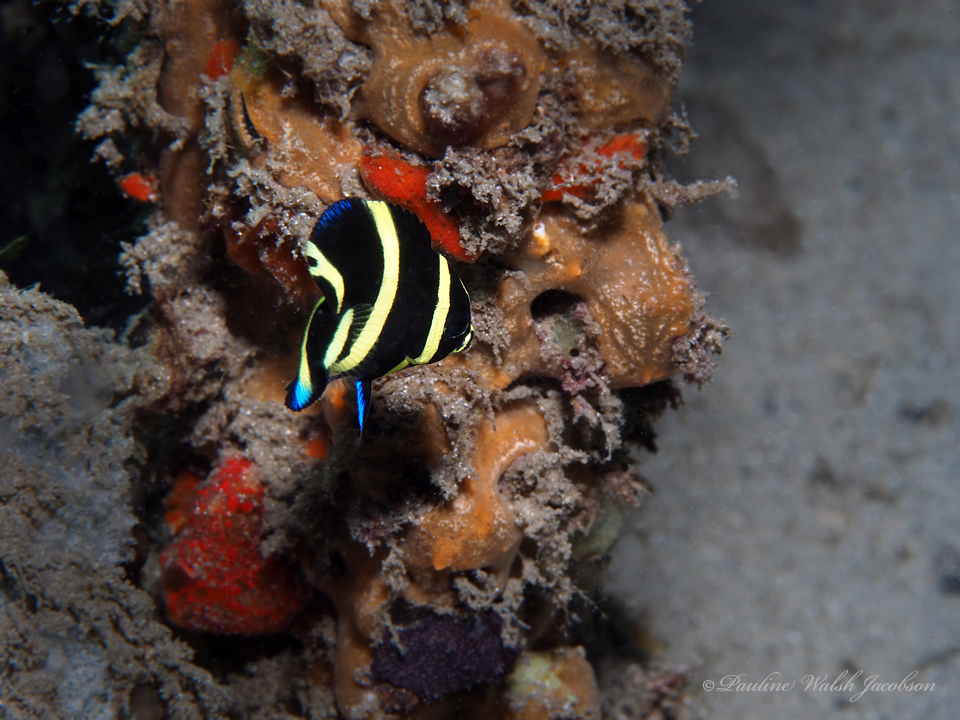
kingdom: Animalia
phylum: Chordata
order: Perciformes
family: Pomacanthidae
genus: Pomacanthus
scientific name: Pomacanthus arcuatus
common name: Gray angelfish
